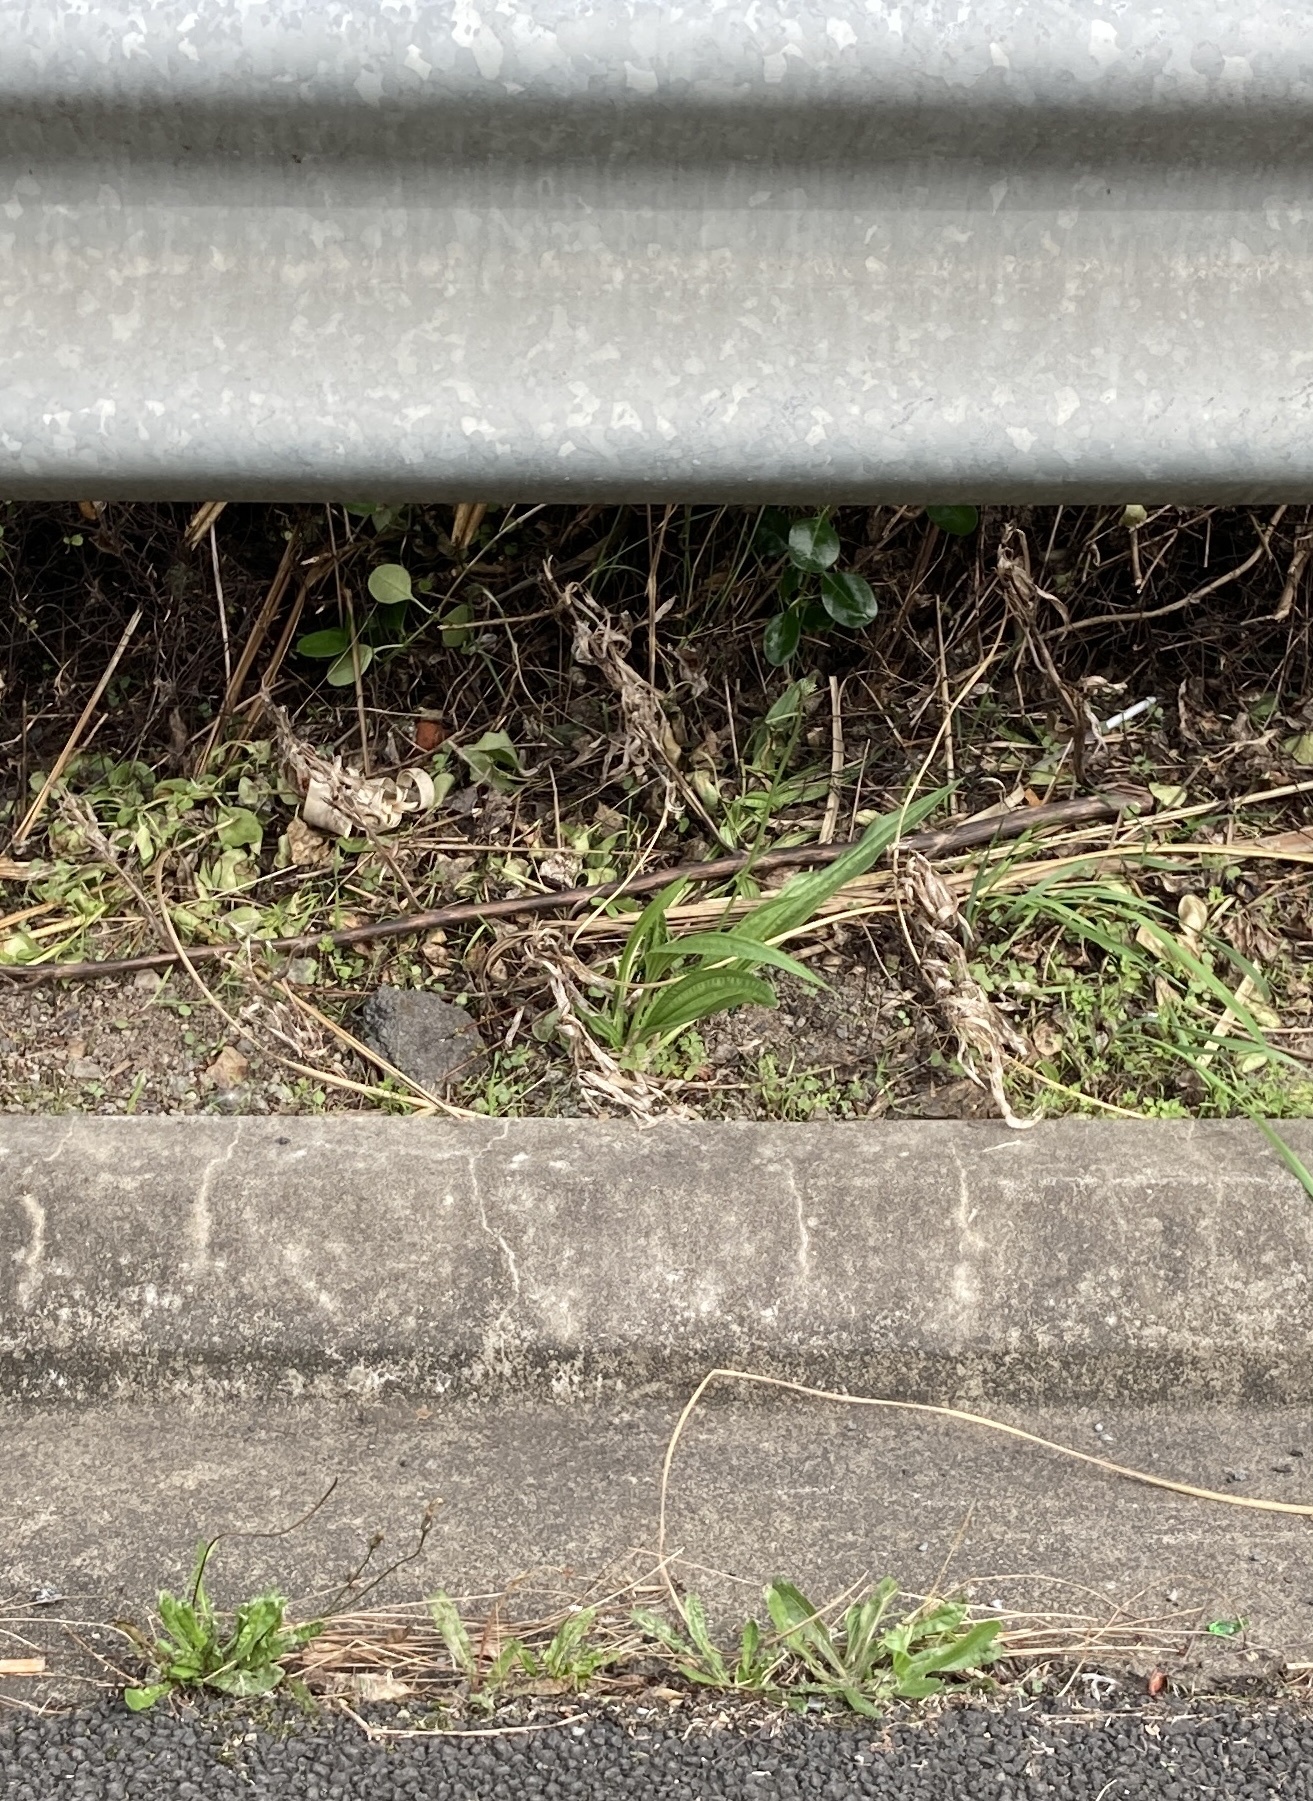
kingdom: Plantae
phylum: Tracheophyta
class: Magnoliopsida
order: Lamiales
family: Plantaginaceae
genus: Plantago
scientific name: Plantago lanceolata
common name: Ribwort plantain
